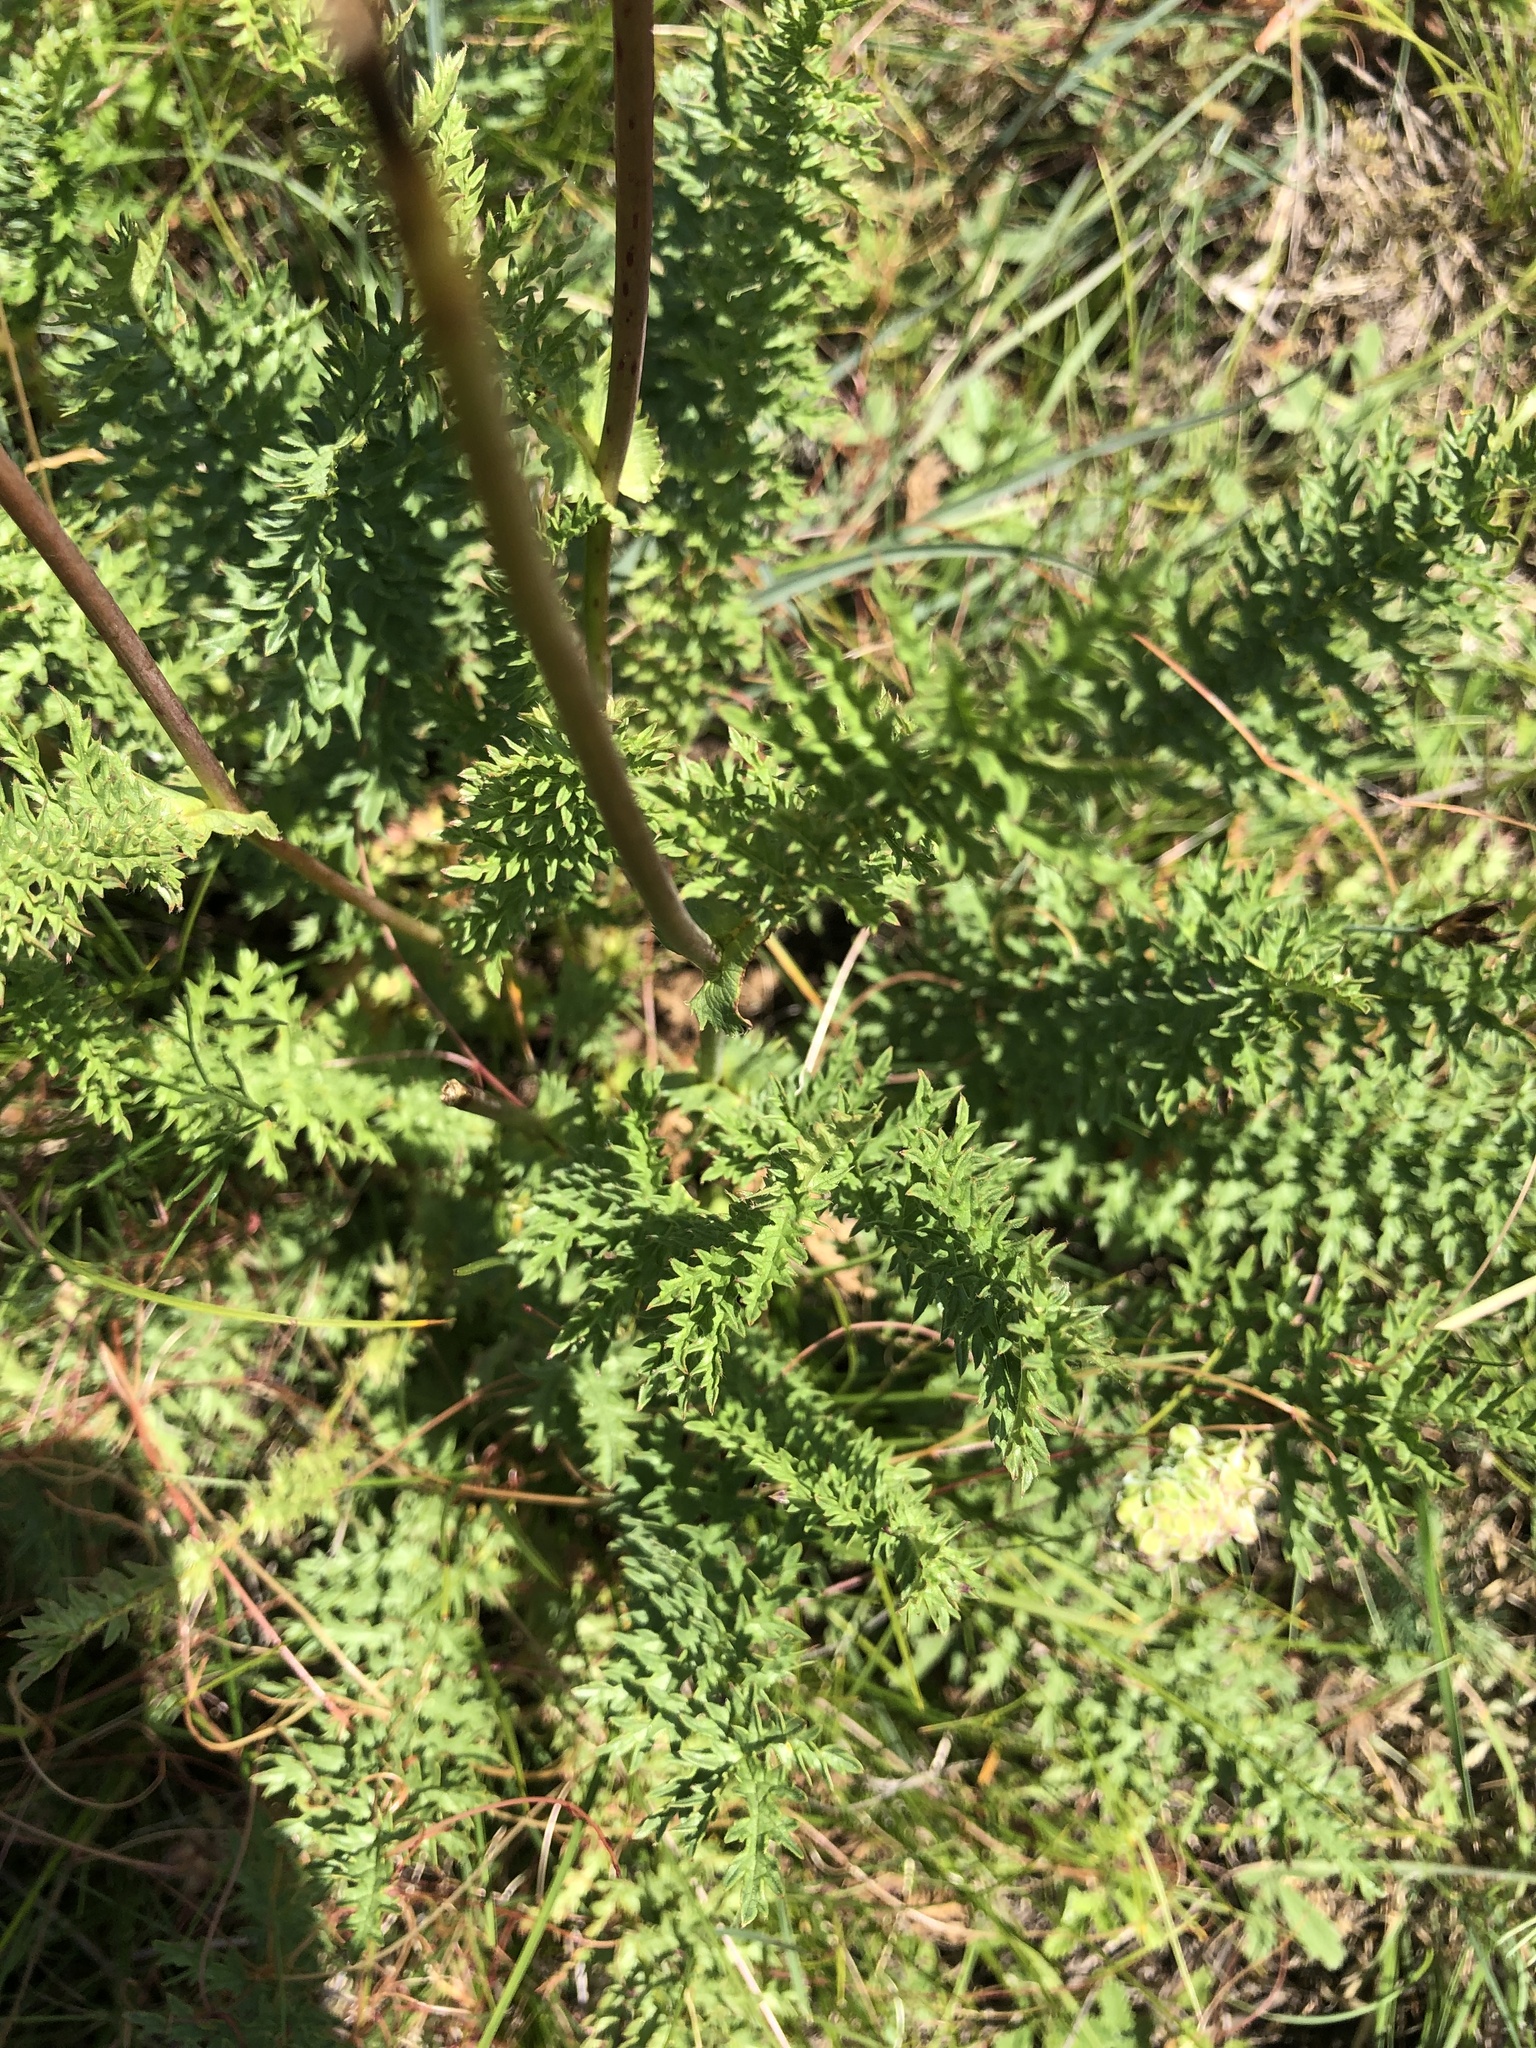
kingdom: Plantae
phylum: Tracheophyta
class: Magnoliopsida
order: Rosales
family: Rosaceae
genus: Filipendula
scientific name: Filipendula vulgaris
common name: Dropwort
